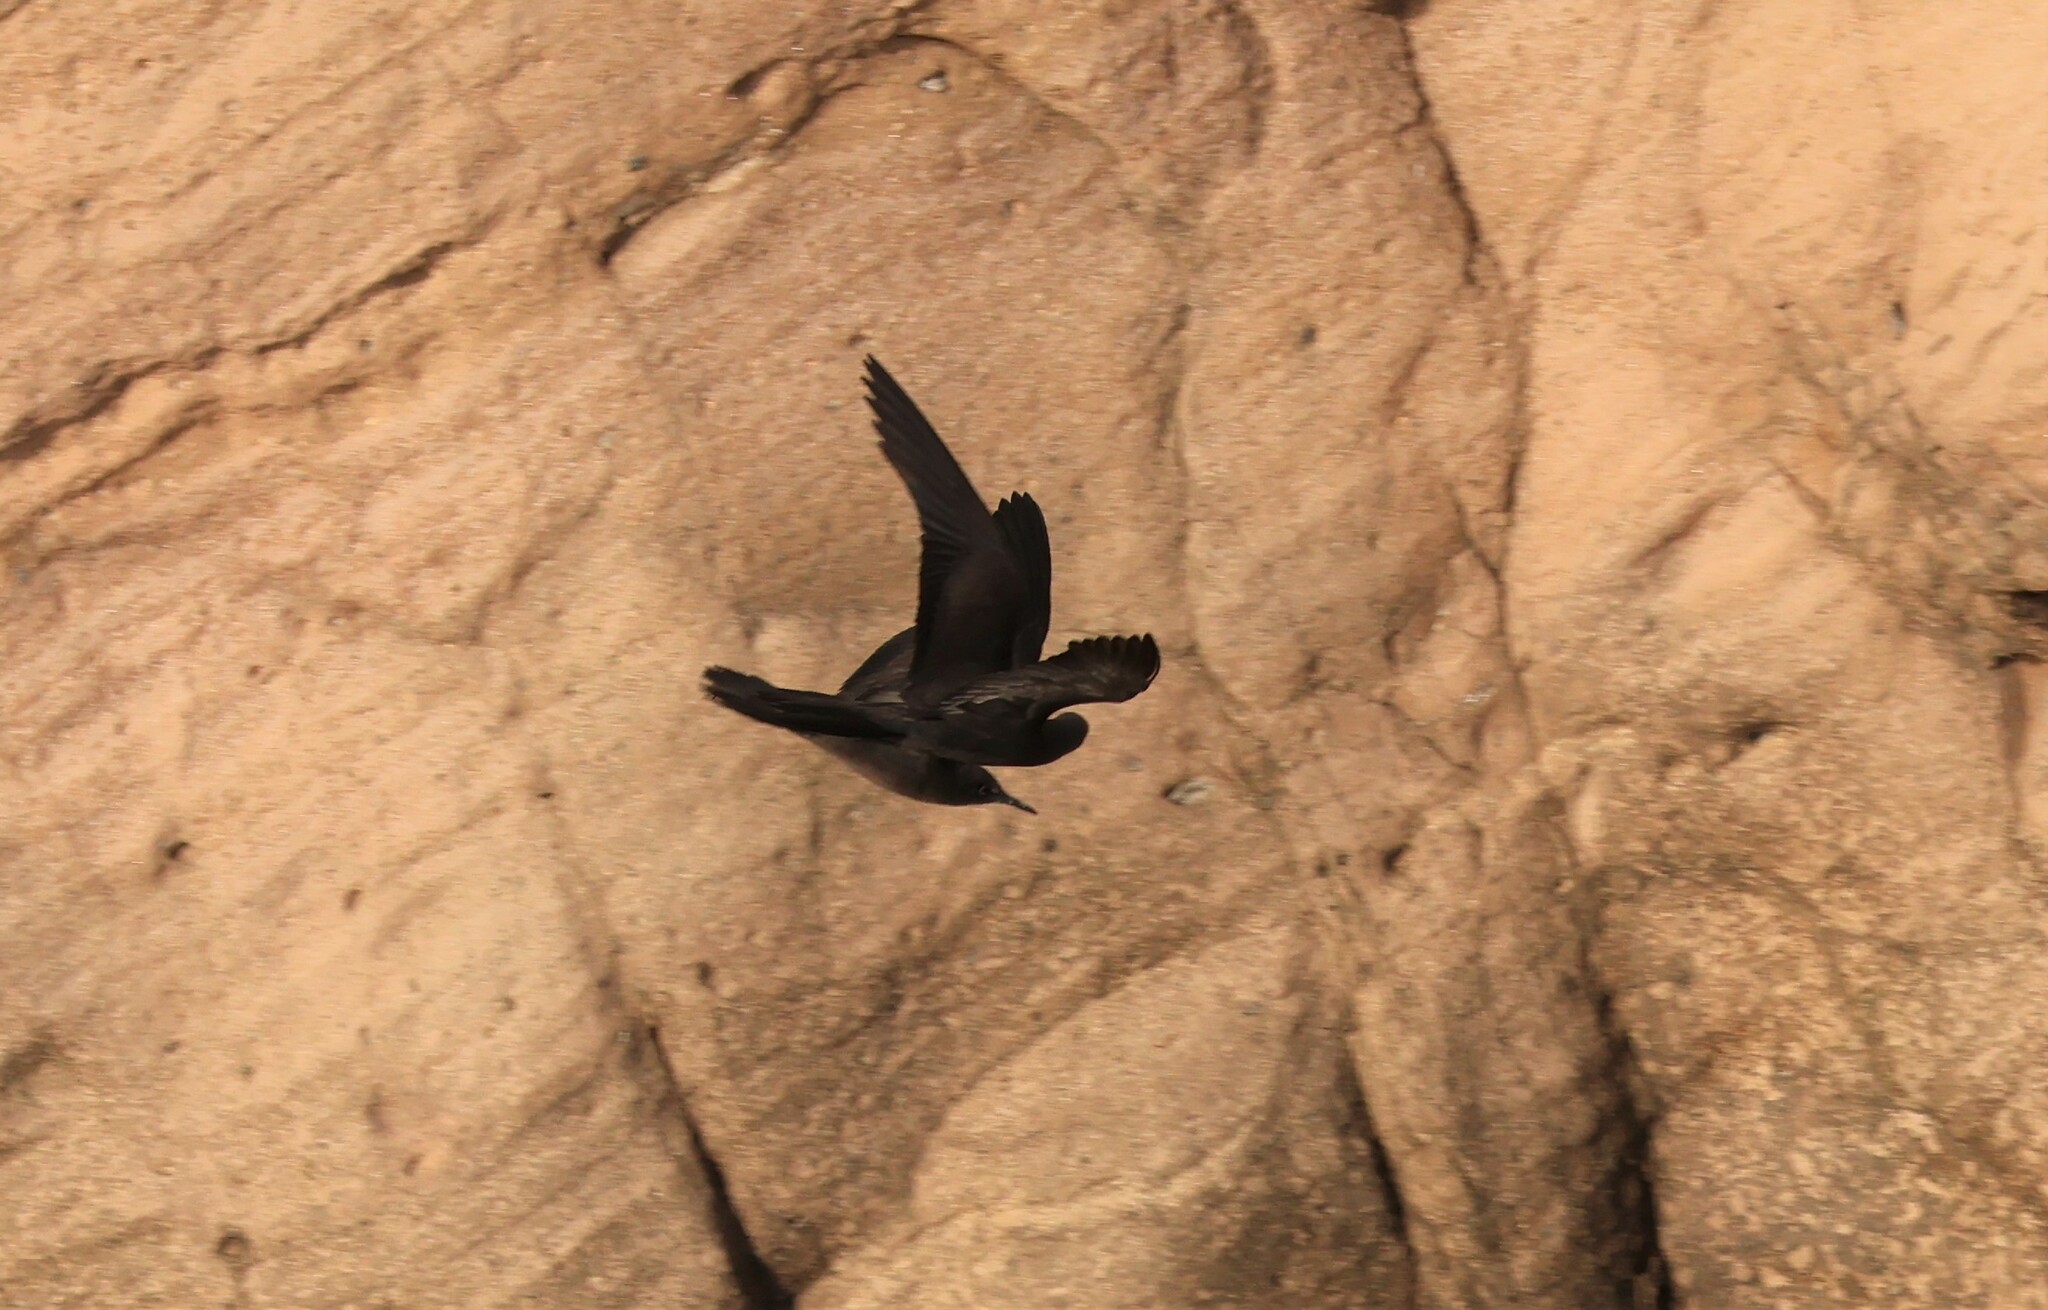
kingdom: Animalia
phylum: Chordata
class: Aves
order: Charadriiformes
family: Laridae
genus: Anous
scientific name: Anous stolidus
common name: Brown noddy
